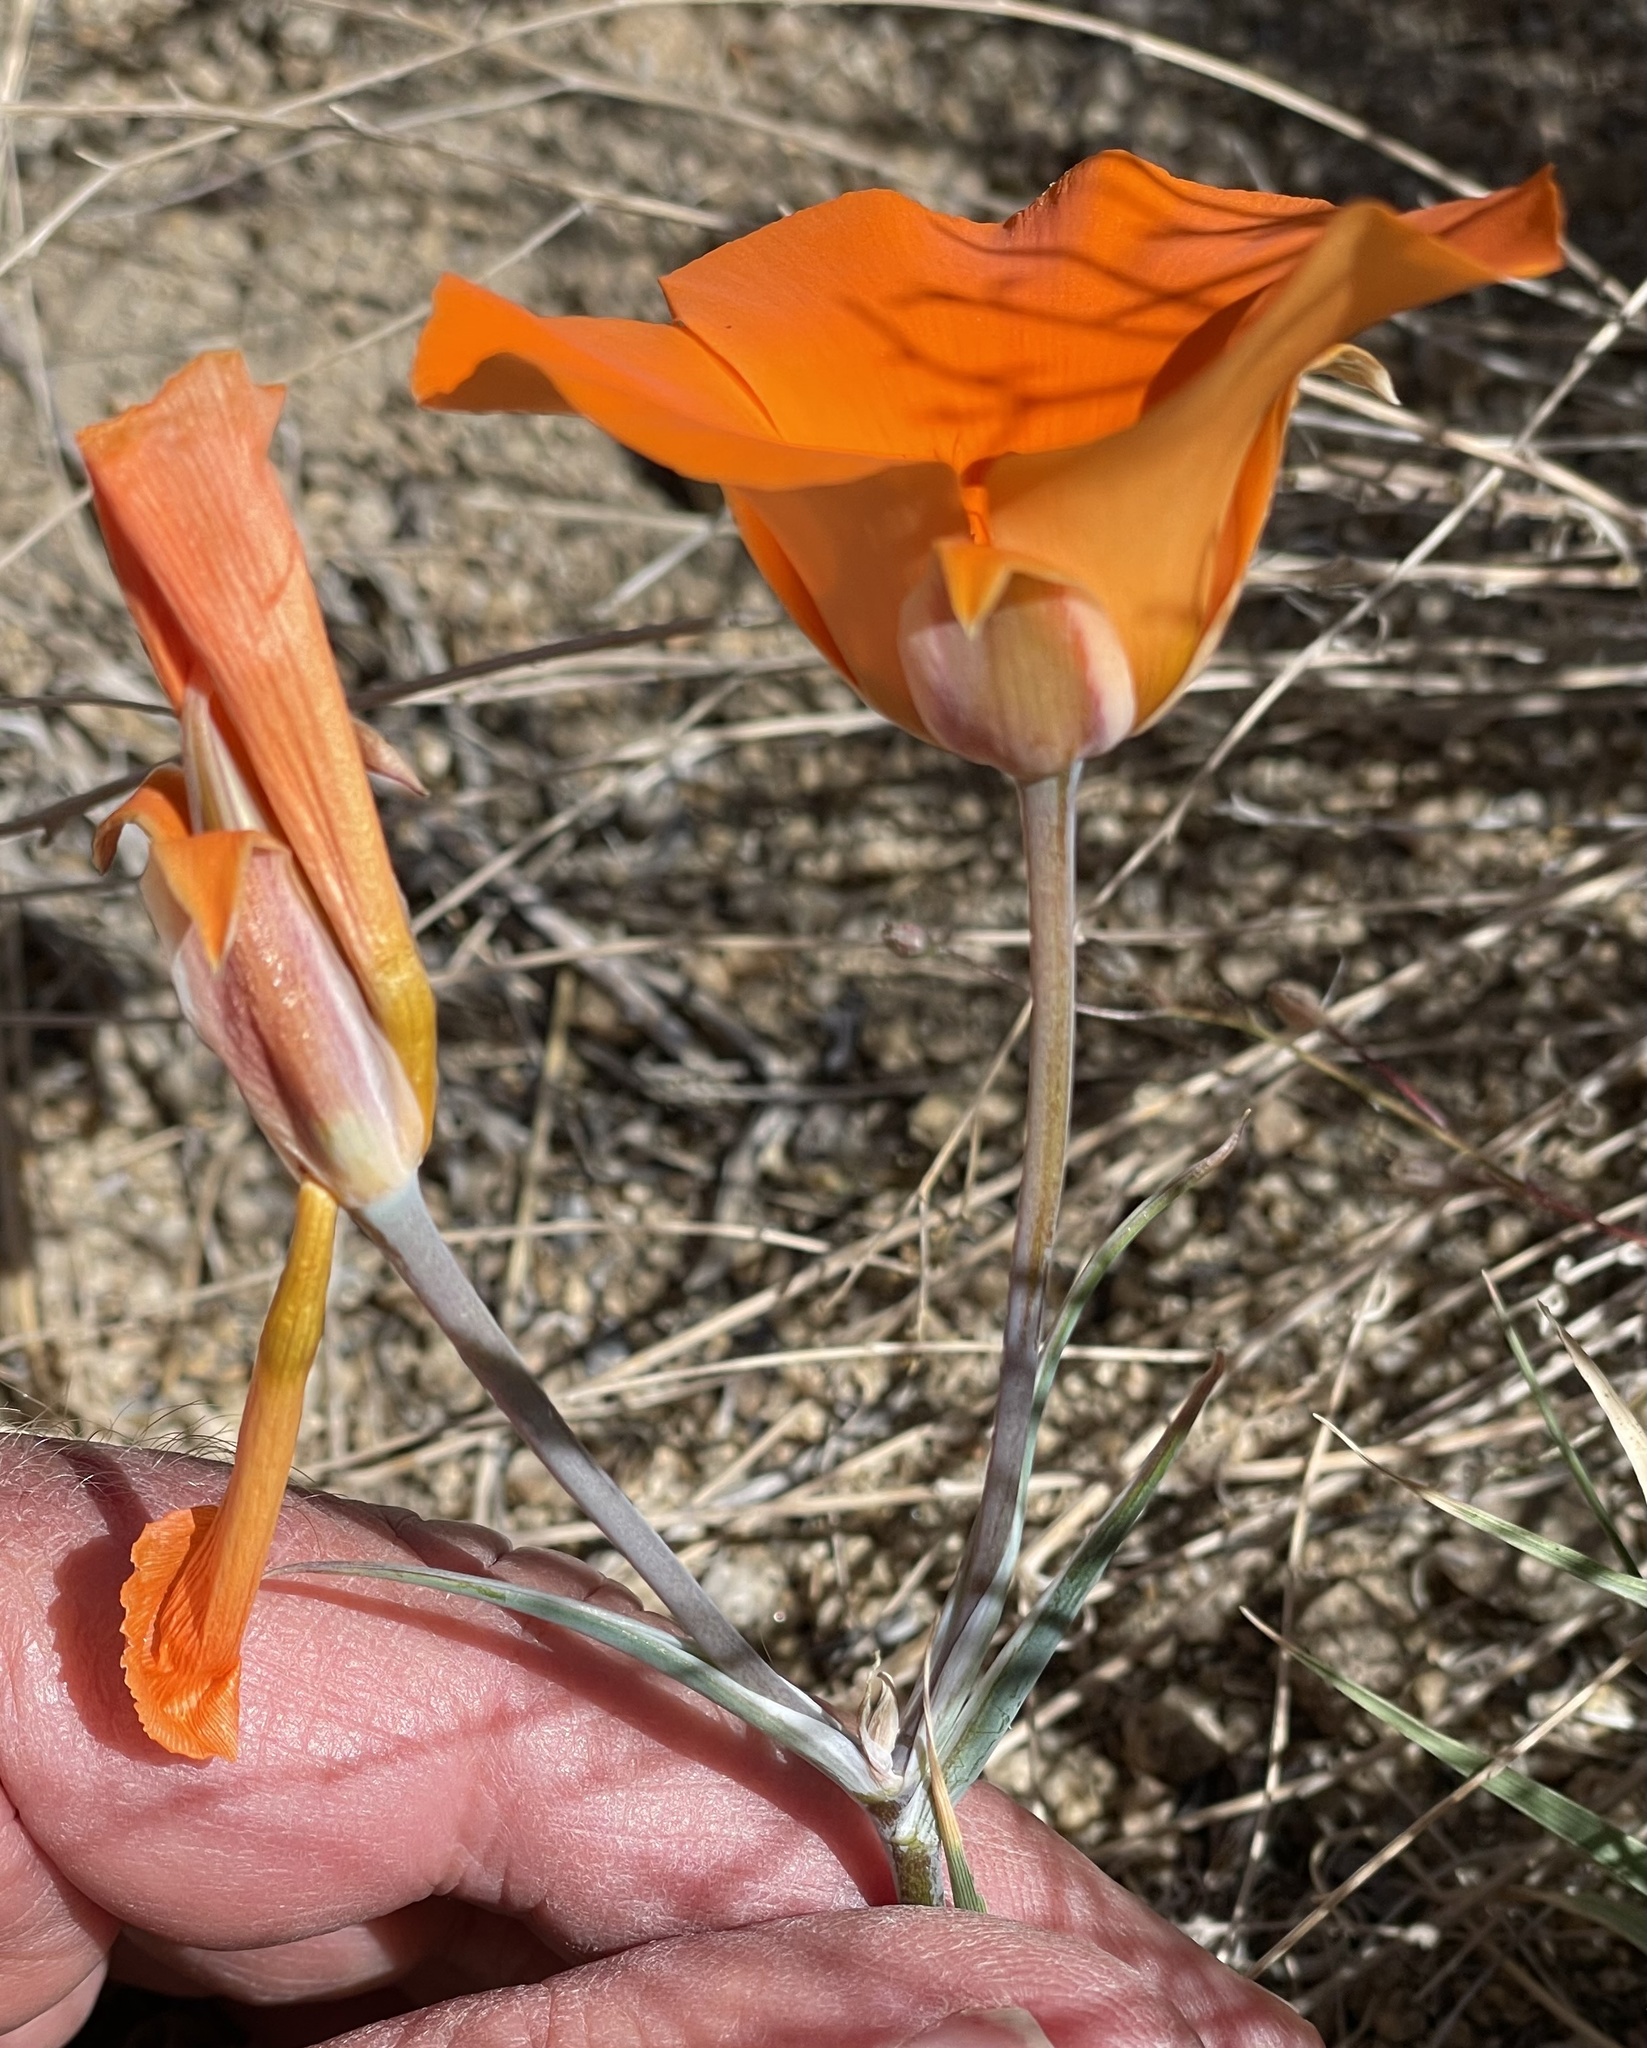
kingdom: Plantae
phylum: Tracheophyta
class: Liliopsida
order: Liliales
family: Liliaceae
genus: Calochortus
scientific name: Calochortus kennedyi
